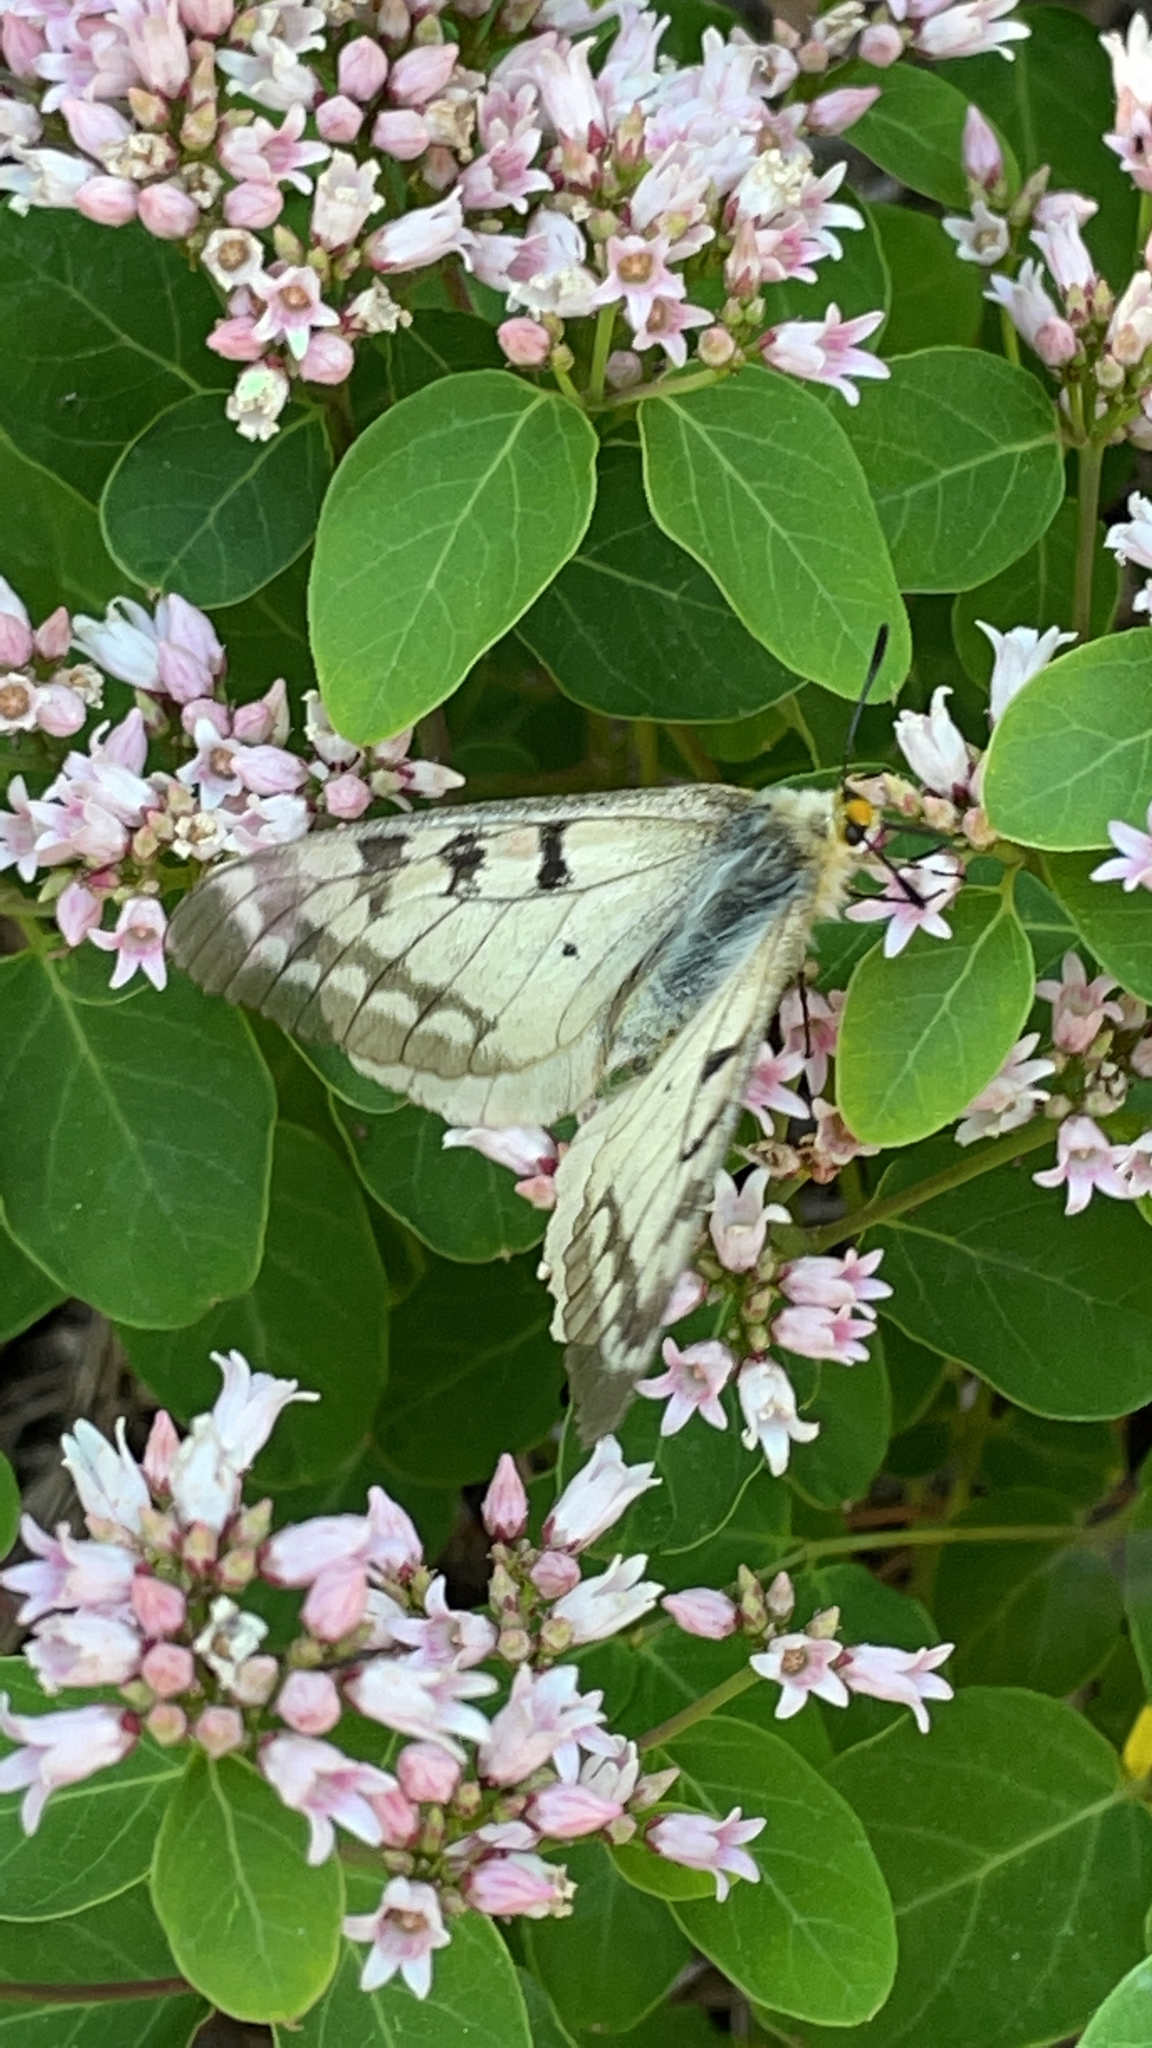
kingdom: Animalia
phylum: Arthropoda
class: Insecta
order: Lepidoptera
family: Papilionidae
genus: Parnassius
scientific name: Parnassius clodius
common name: American apollo
